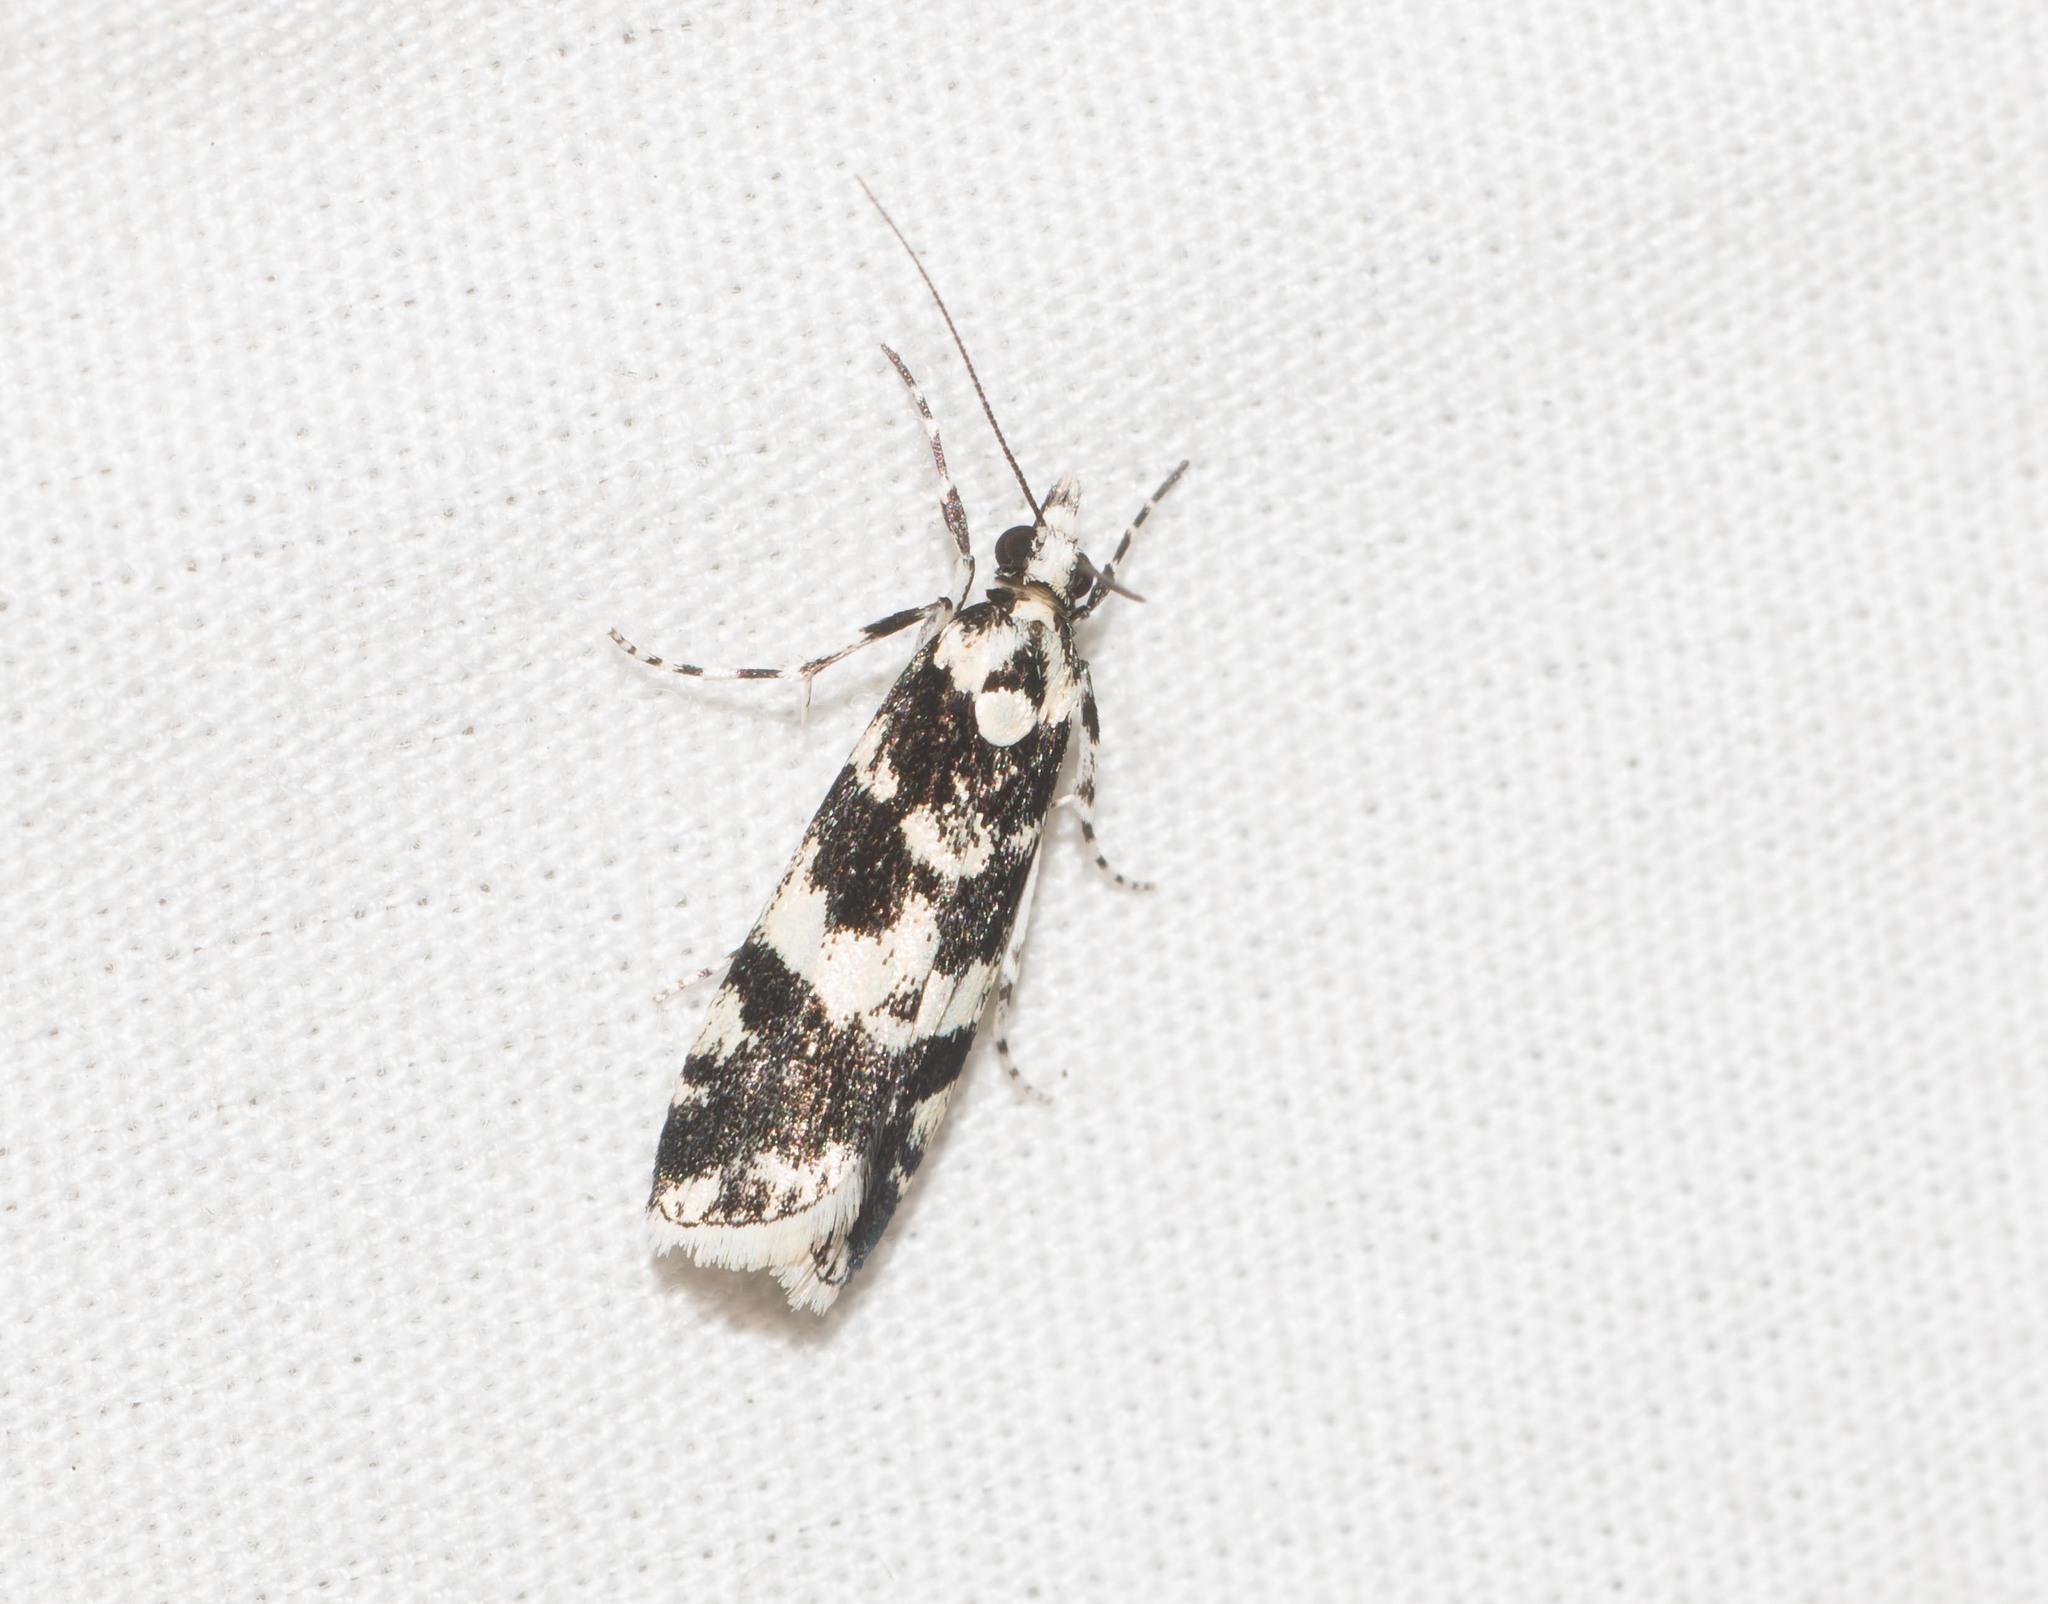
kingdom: Animalia
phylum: Arthropoda
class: Insecta
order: Lepidoptera
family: Crambidae
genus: Eudonia
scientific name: Eudonia mesoleuca
